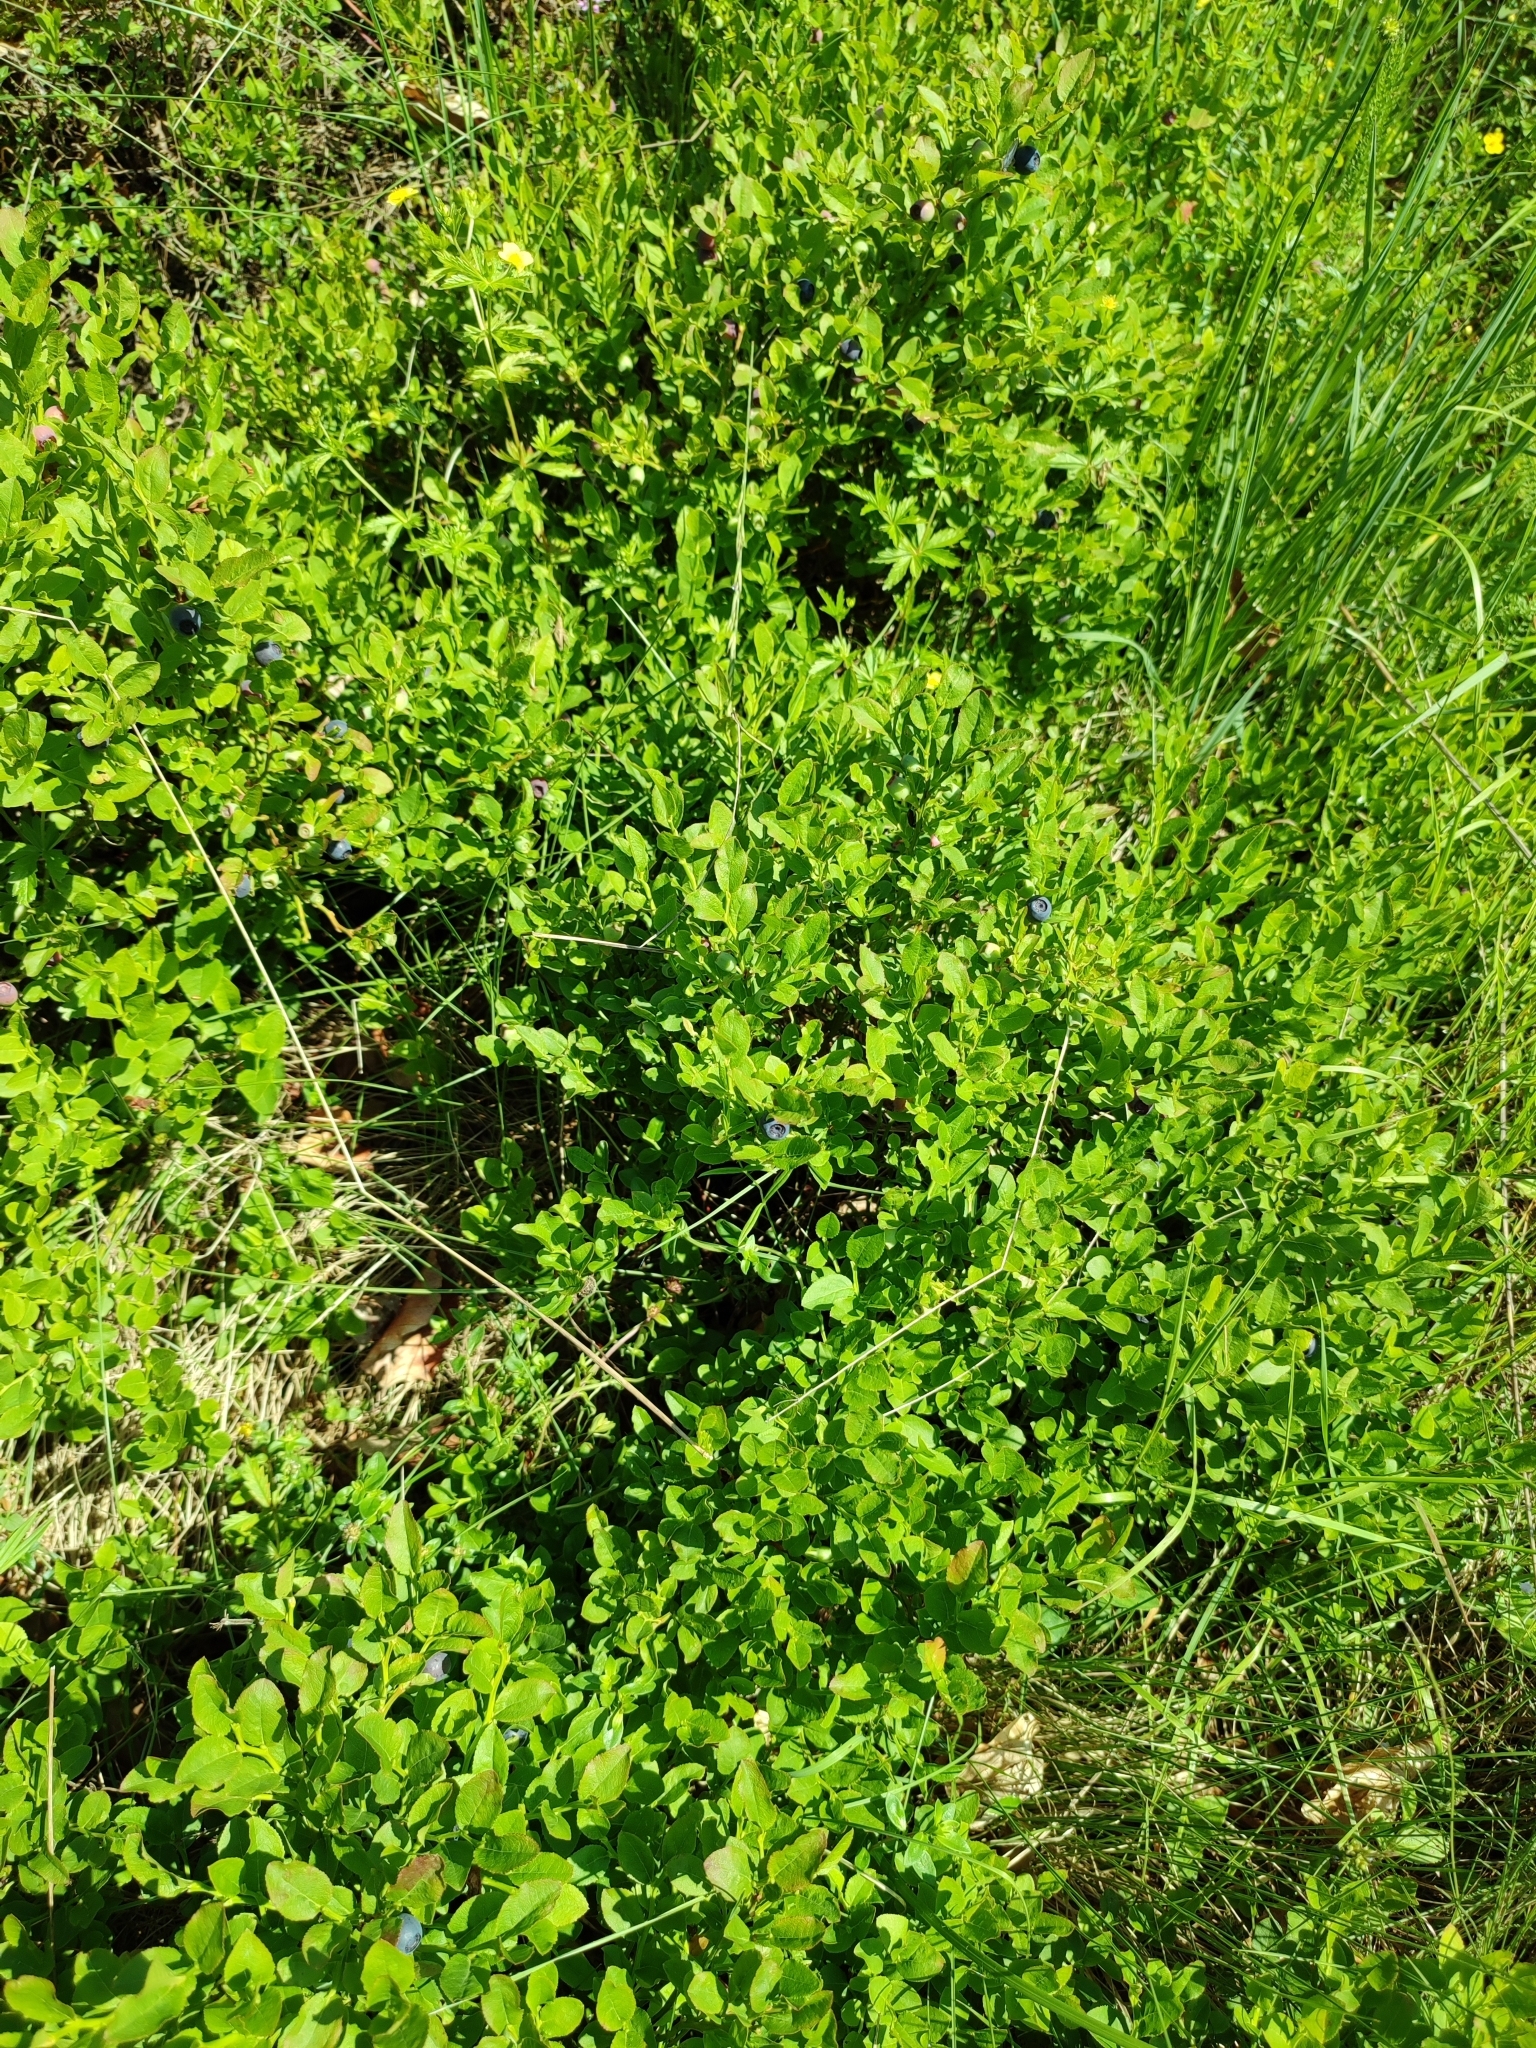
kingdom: Plantae
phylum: Tracheophyta
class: Magnoliopsida
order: Ericales
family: Ericaceae
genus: Vaccinium
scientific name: Vaccinium myrtillus
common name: Bilberry
